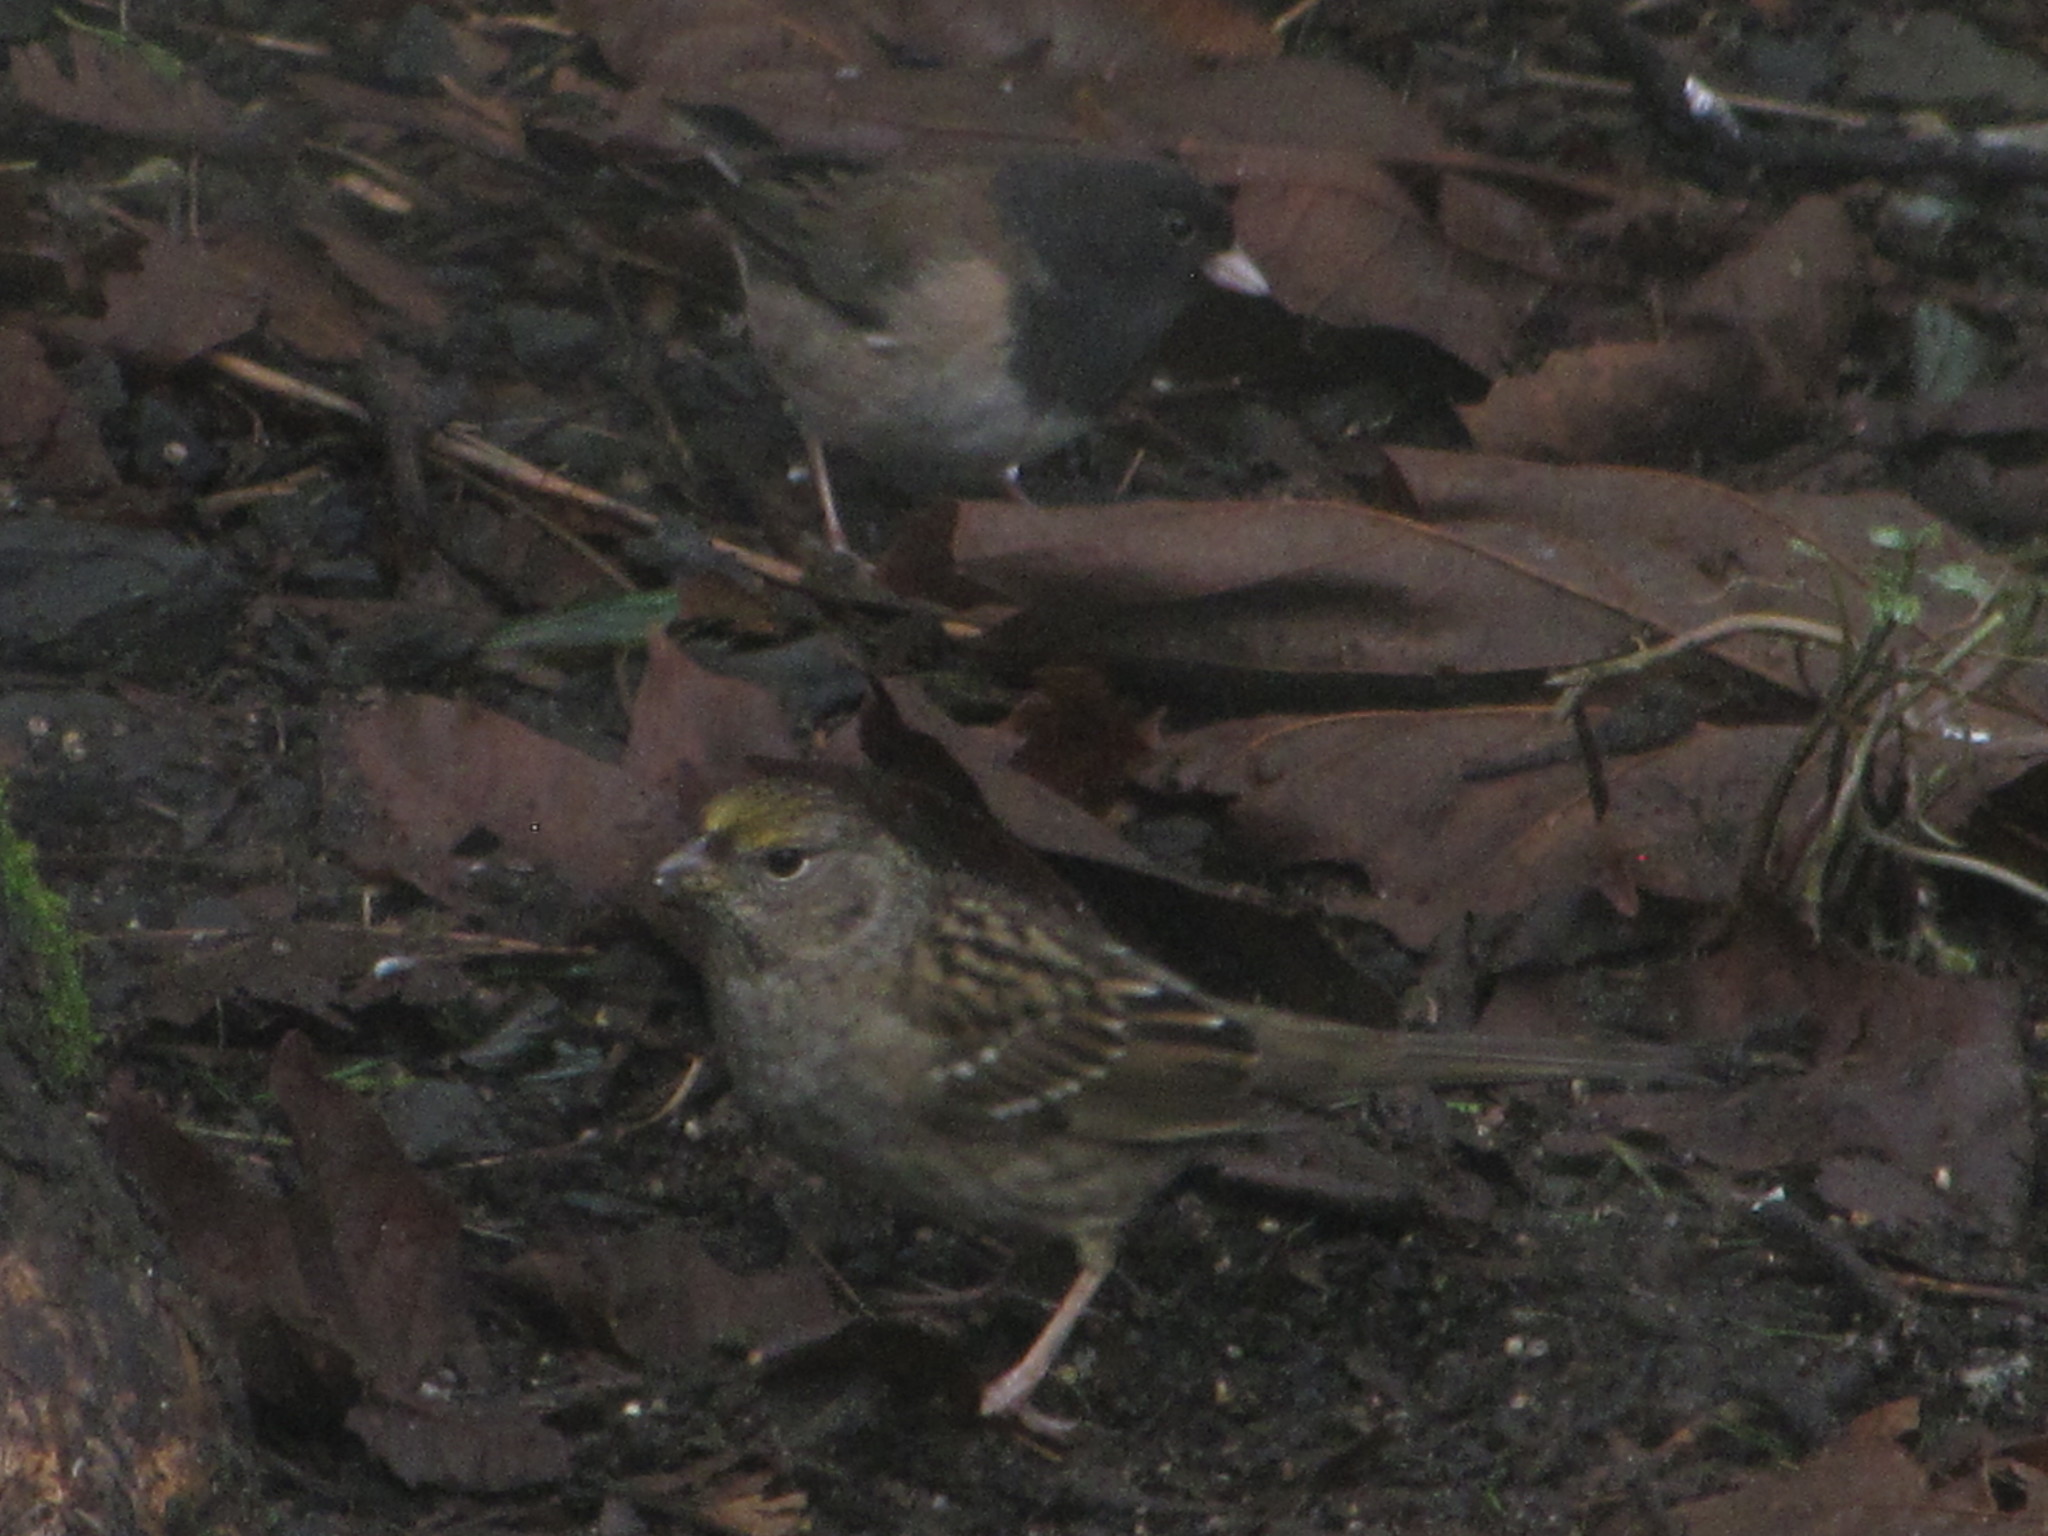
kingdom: Animalia
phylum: Chordata
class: Aves
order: Passeriformes
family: Passerellidae
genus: Zonotrichia
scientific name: Zonotrichia atricapilla
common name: Golden-crowned sparrow
